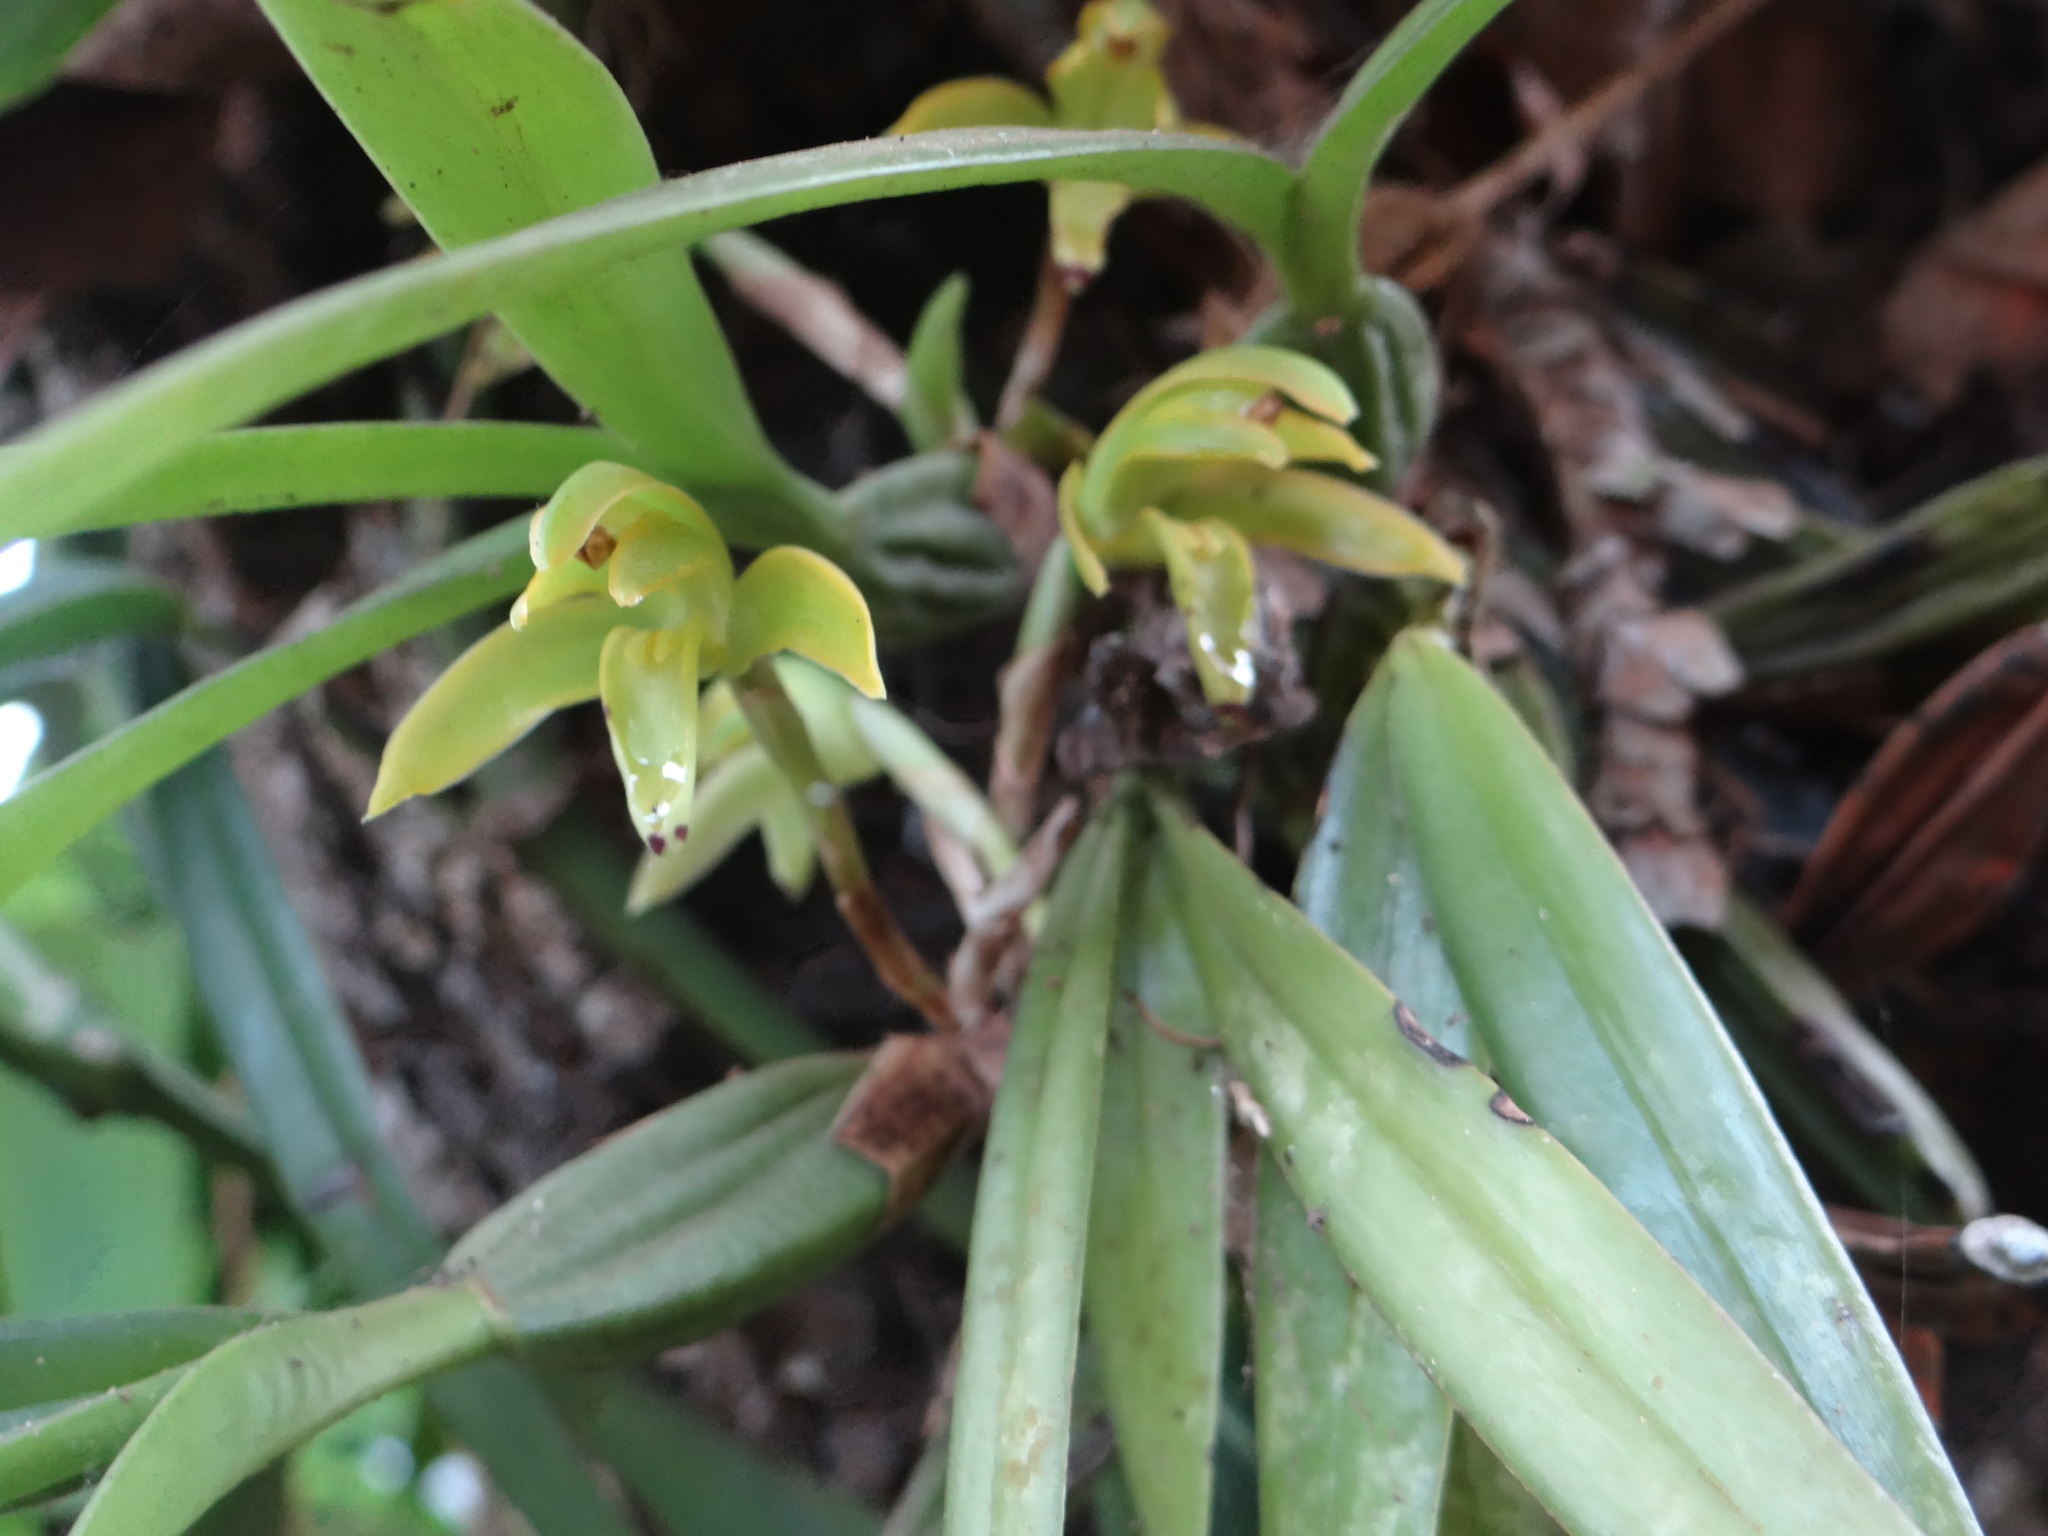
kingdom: Plantae
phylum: Tracheophyta
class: Liliopsida
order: Asparagales
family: Orchidaceae
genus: Maxillaria
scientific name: Maxillaria scorpioidea
